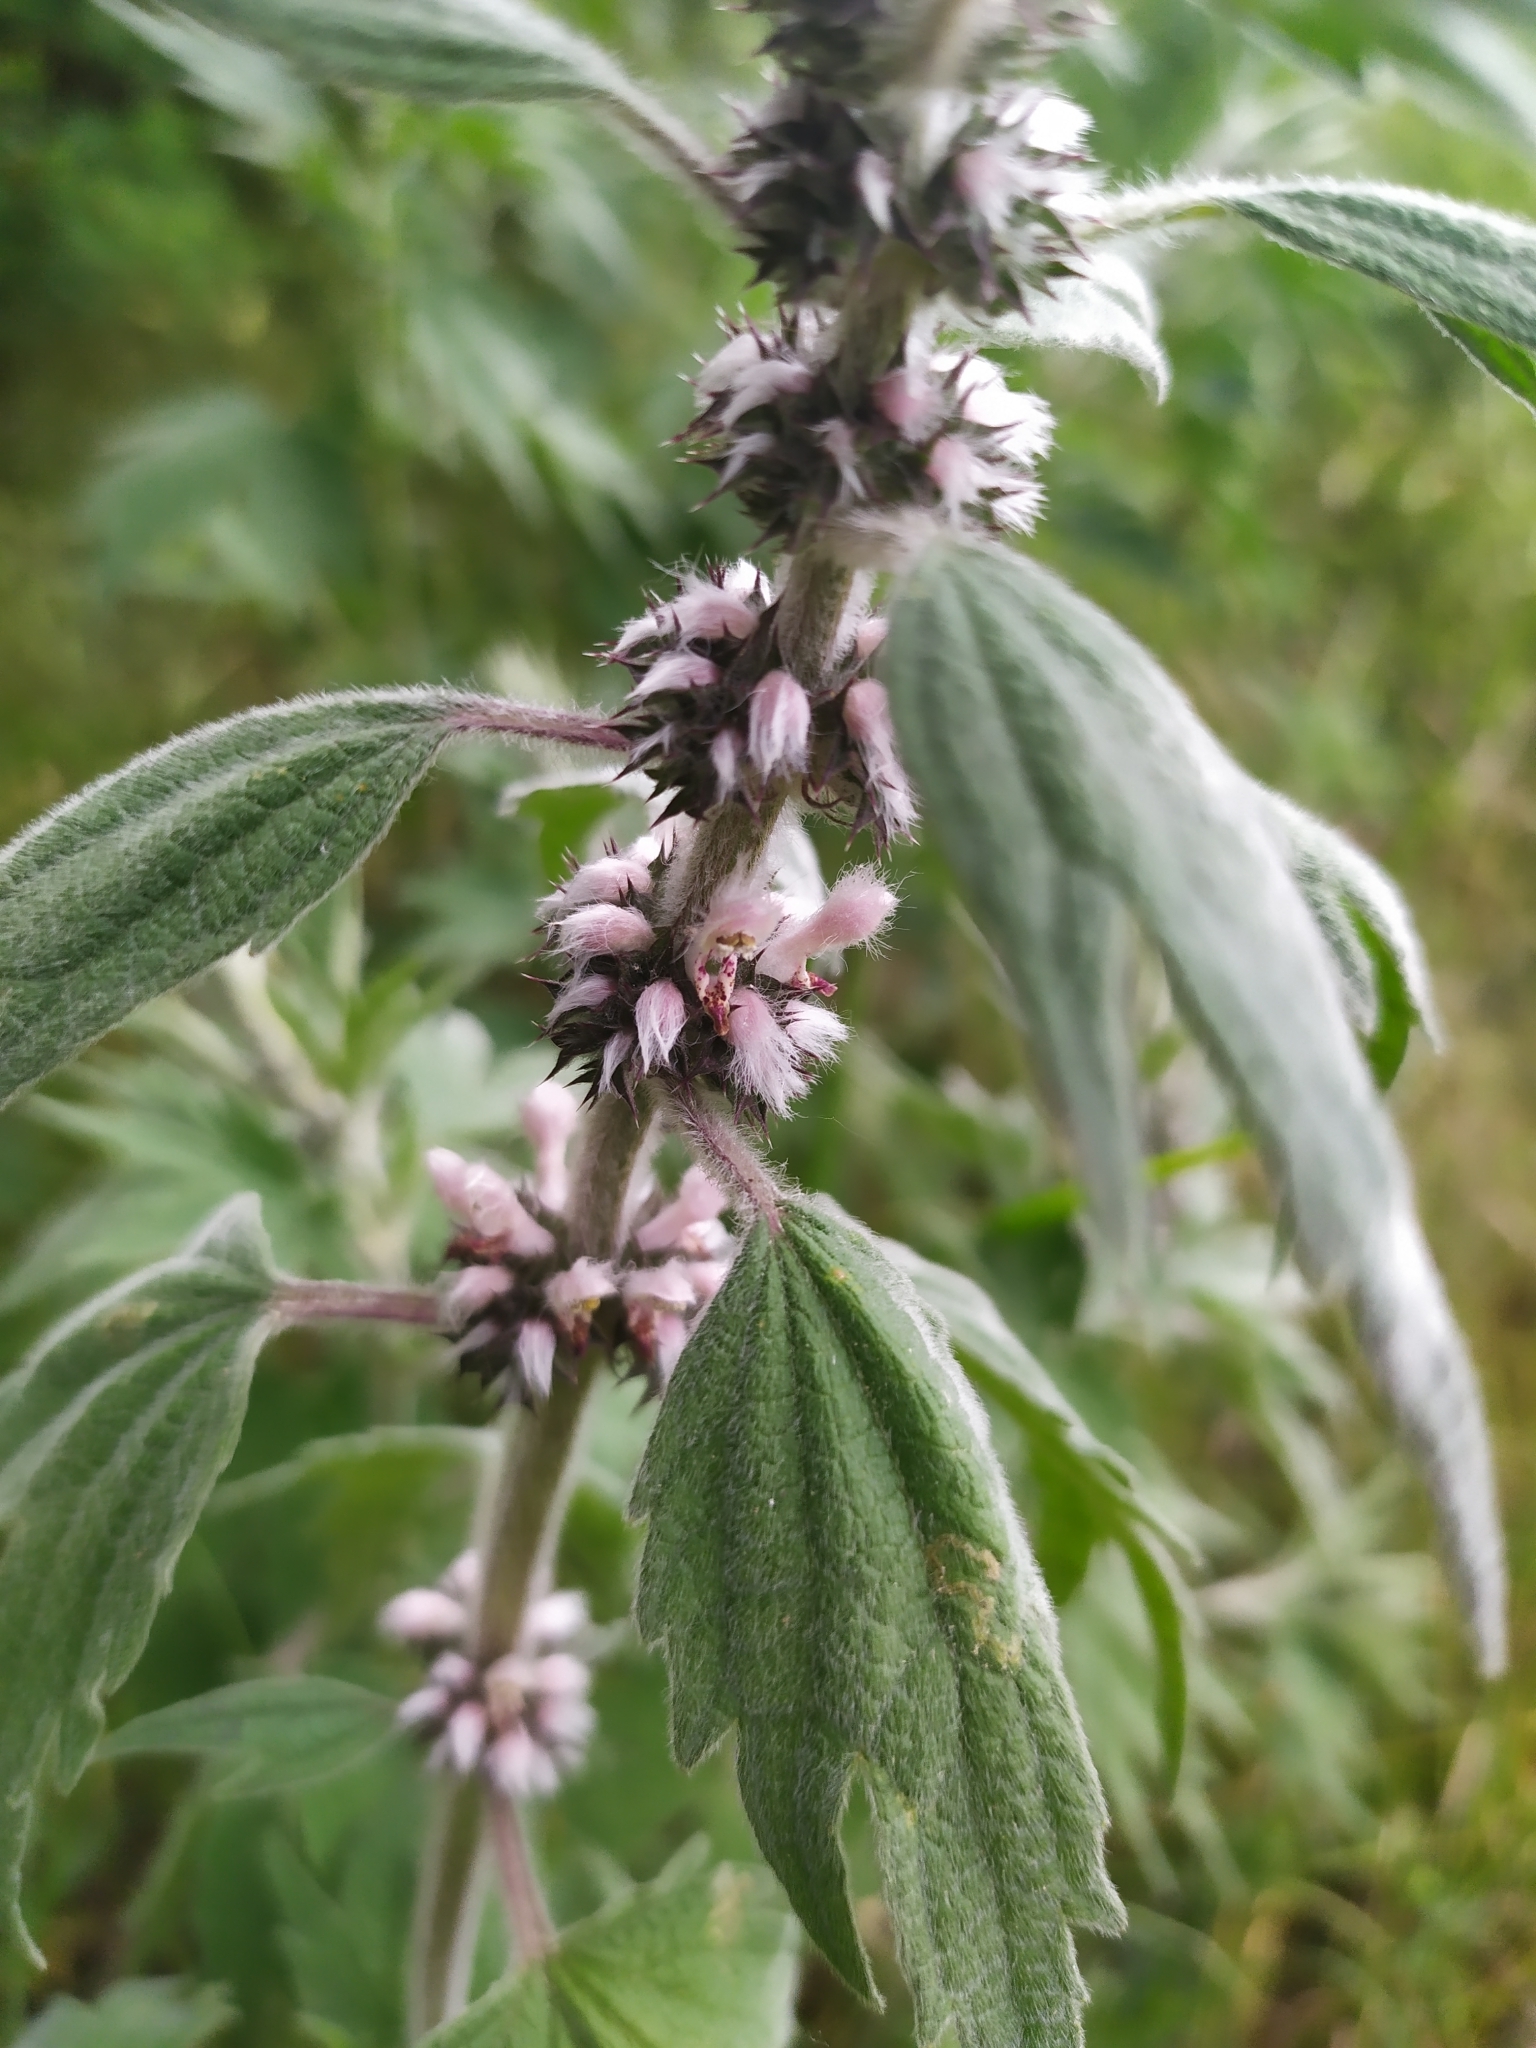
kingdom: Plantae
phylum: Tracheophyta
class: Magnoliopsida
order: Lamiales
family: Lamiaceae
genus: Leonurus
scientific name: Leonurus quinquelobatus
